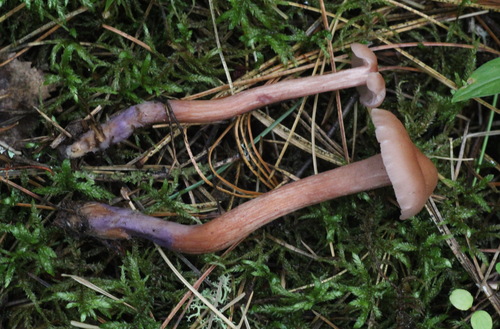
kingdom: Fungi
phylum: Basidiomycota
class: Agaricomycetes
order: Agaricales
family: Hydnangiaceae
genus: Laccaria
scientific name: Laccaria bicolor
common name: Bicoloured deceiver
